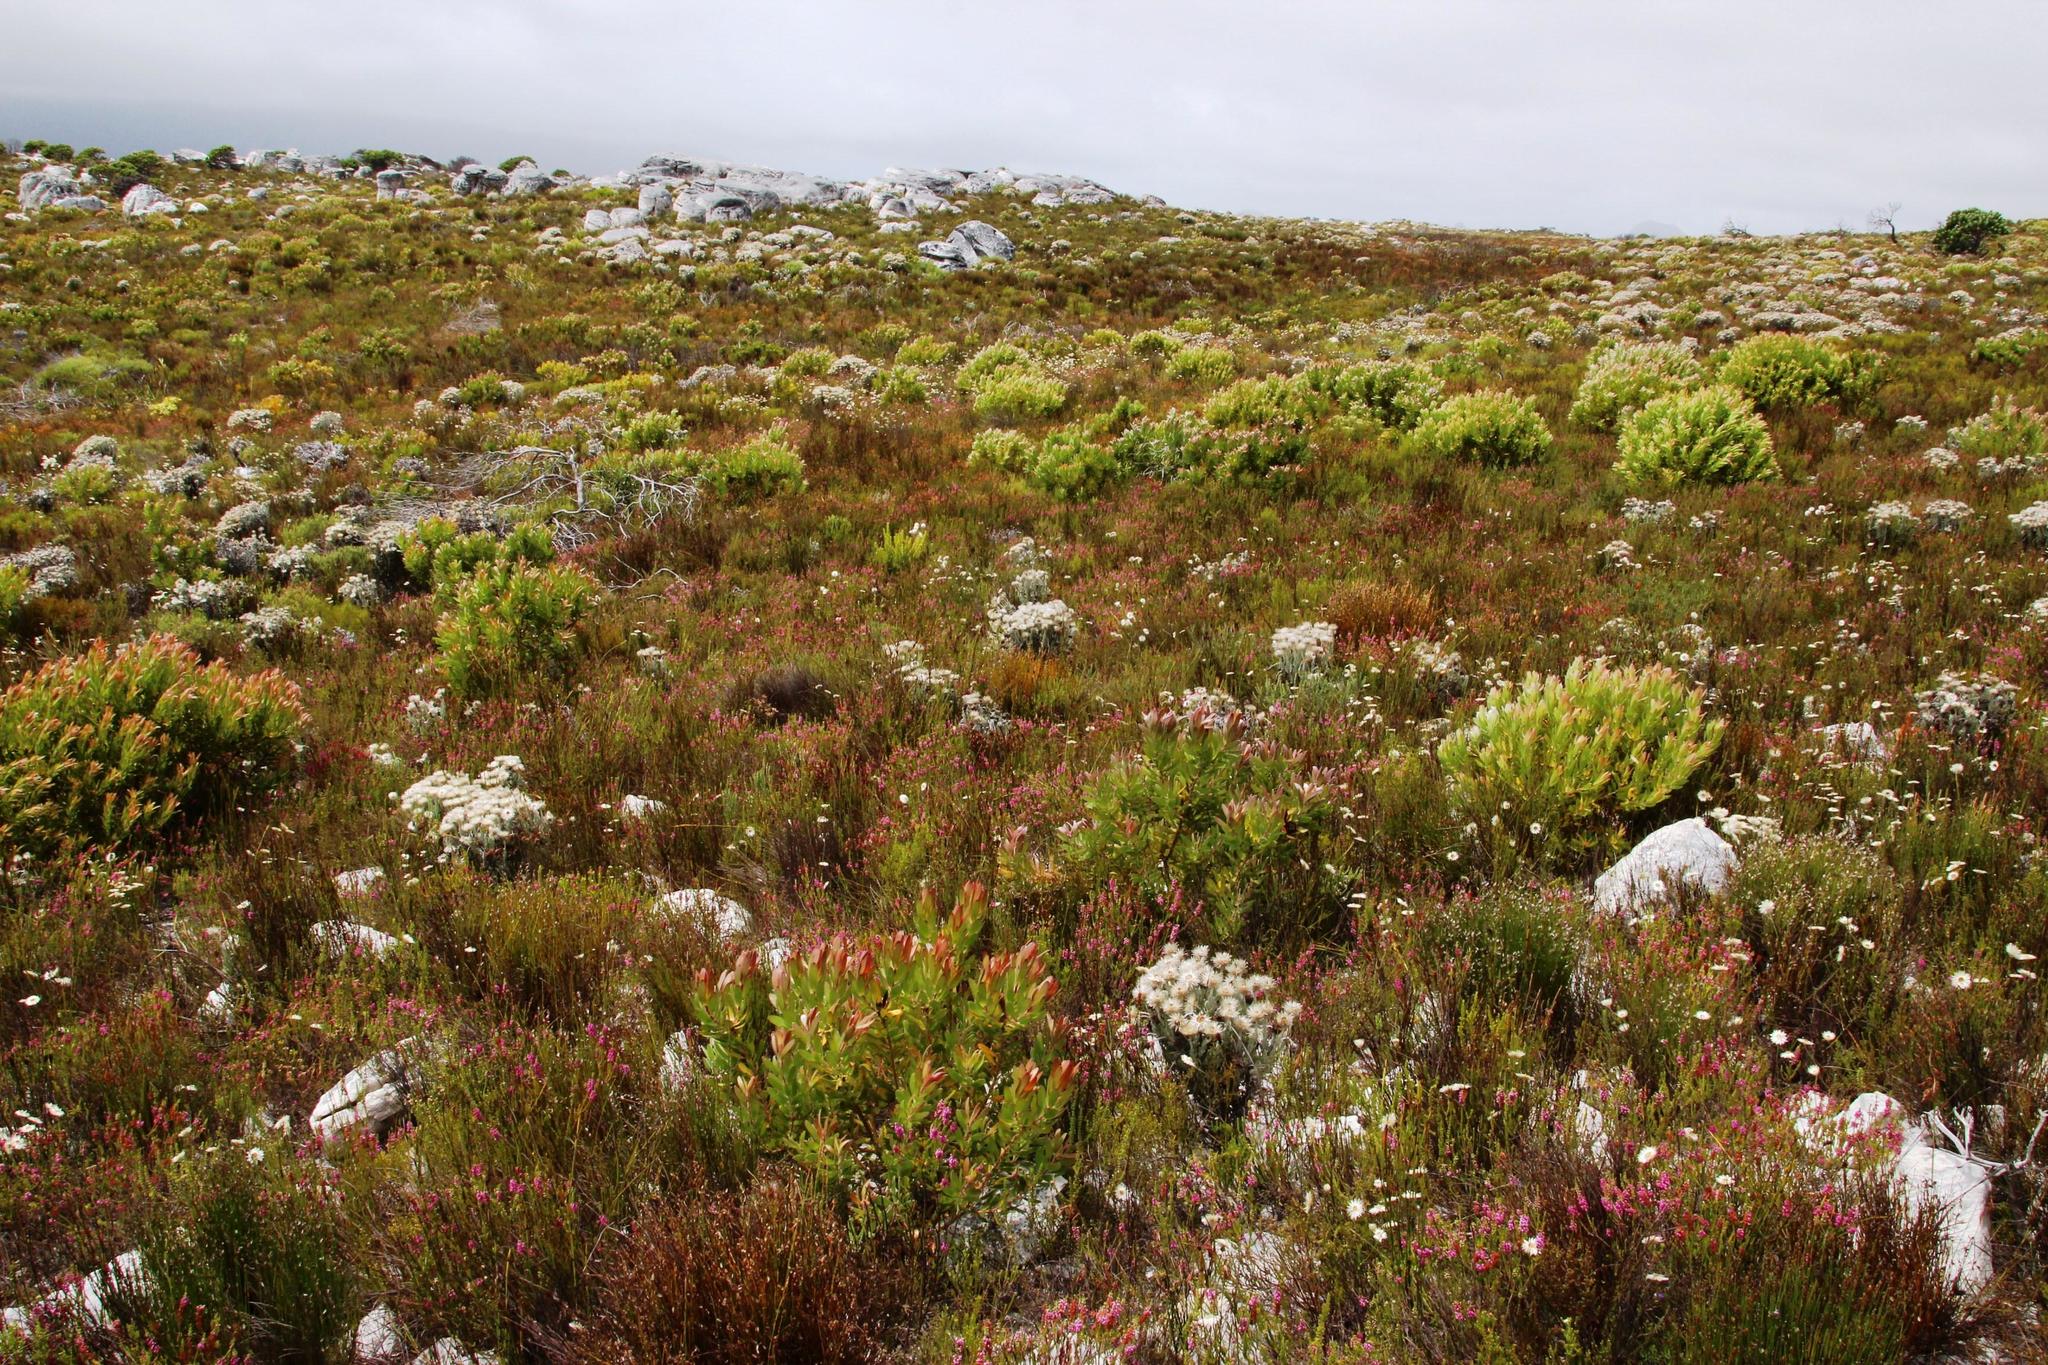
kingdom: Plantae
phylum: Tracheophyta
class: Magnoliopsida
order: Ericales
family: Ericaceae
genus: Erica
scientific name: Erica pulchella
